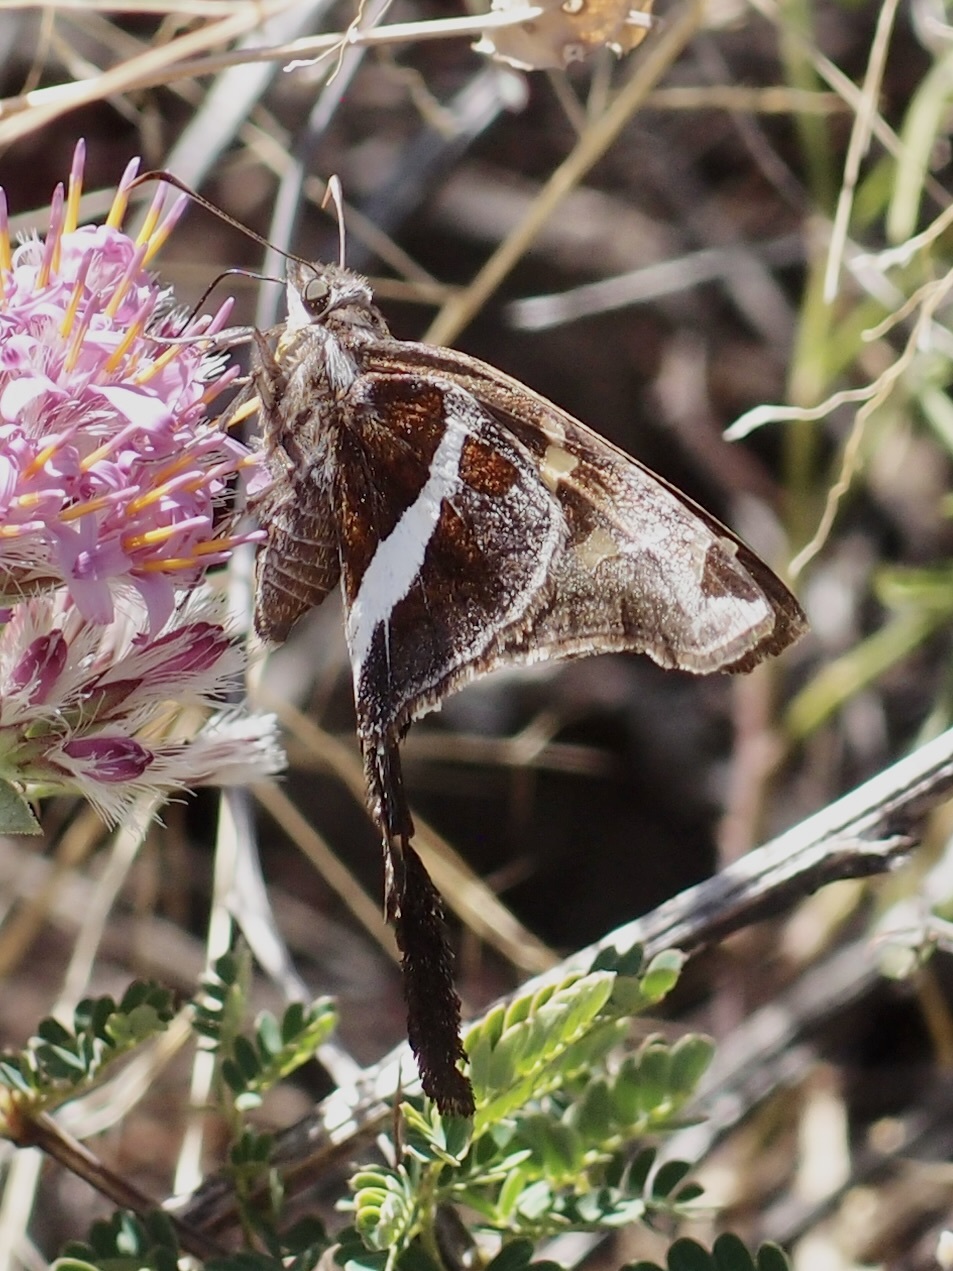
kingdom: Animalia
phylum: Arthropoda
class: Insecta
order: Lepidoptera
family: Hesperiidae
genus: Chioides
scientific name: Chioides catillus
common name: Silverbanded skipper
